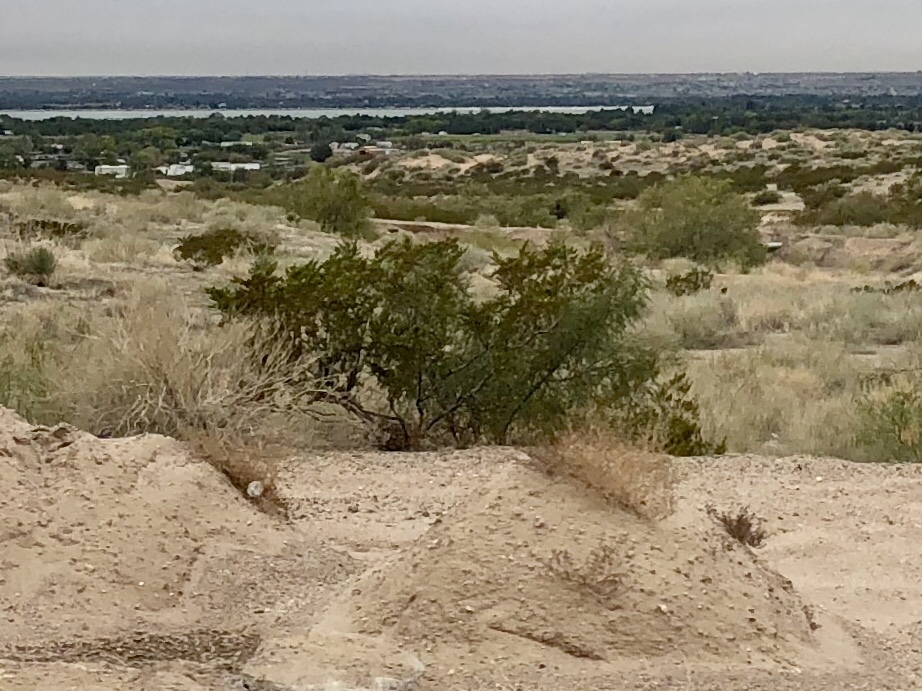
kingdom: Plantae
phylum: Tracheophyta
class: Magnoliopsida
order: Zygophyllales
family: Zygophyllaceae
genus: Larrea
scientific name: Larrea tridentata
